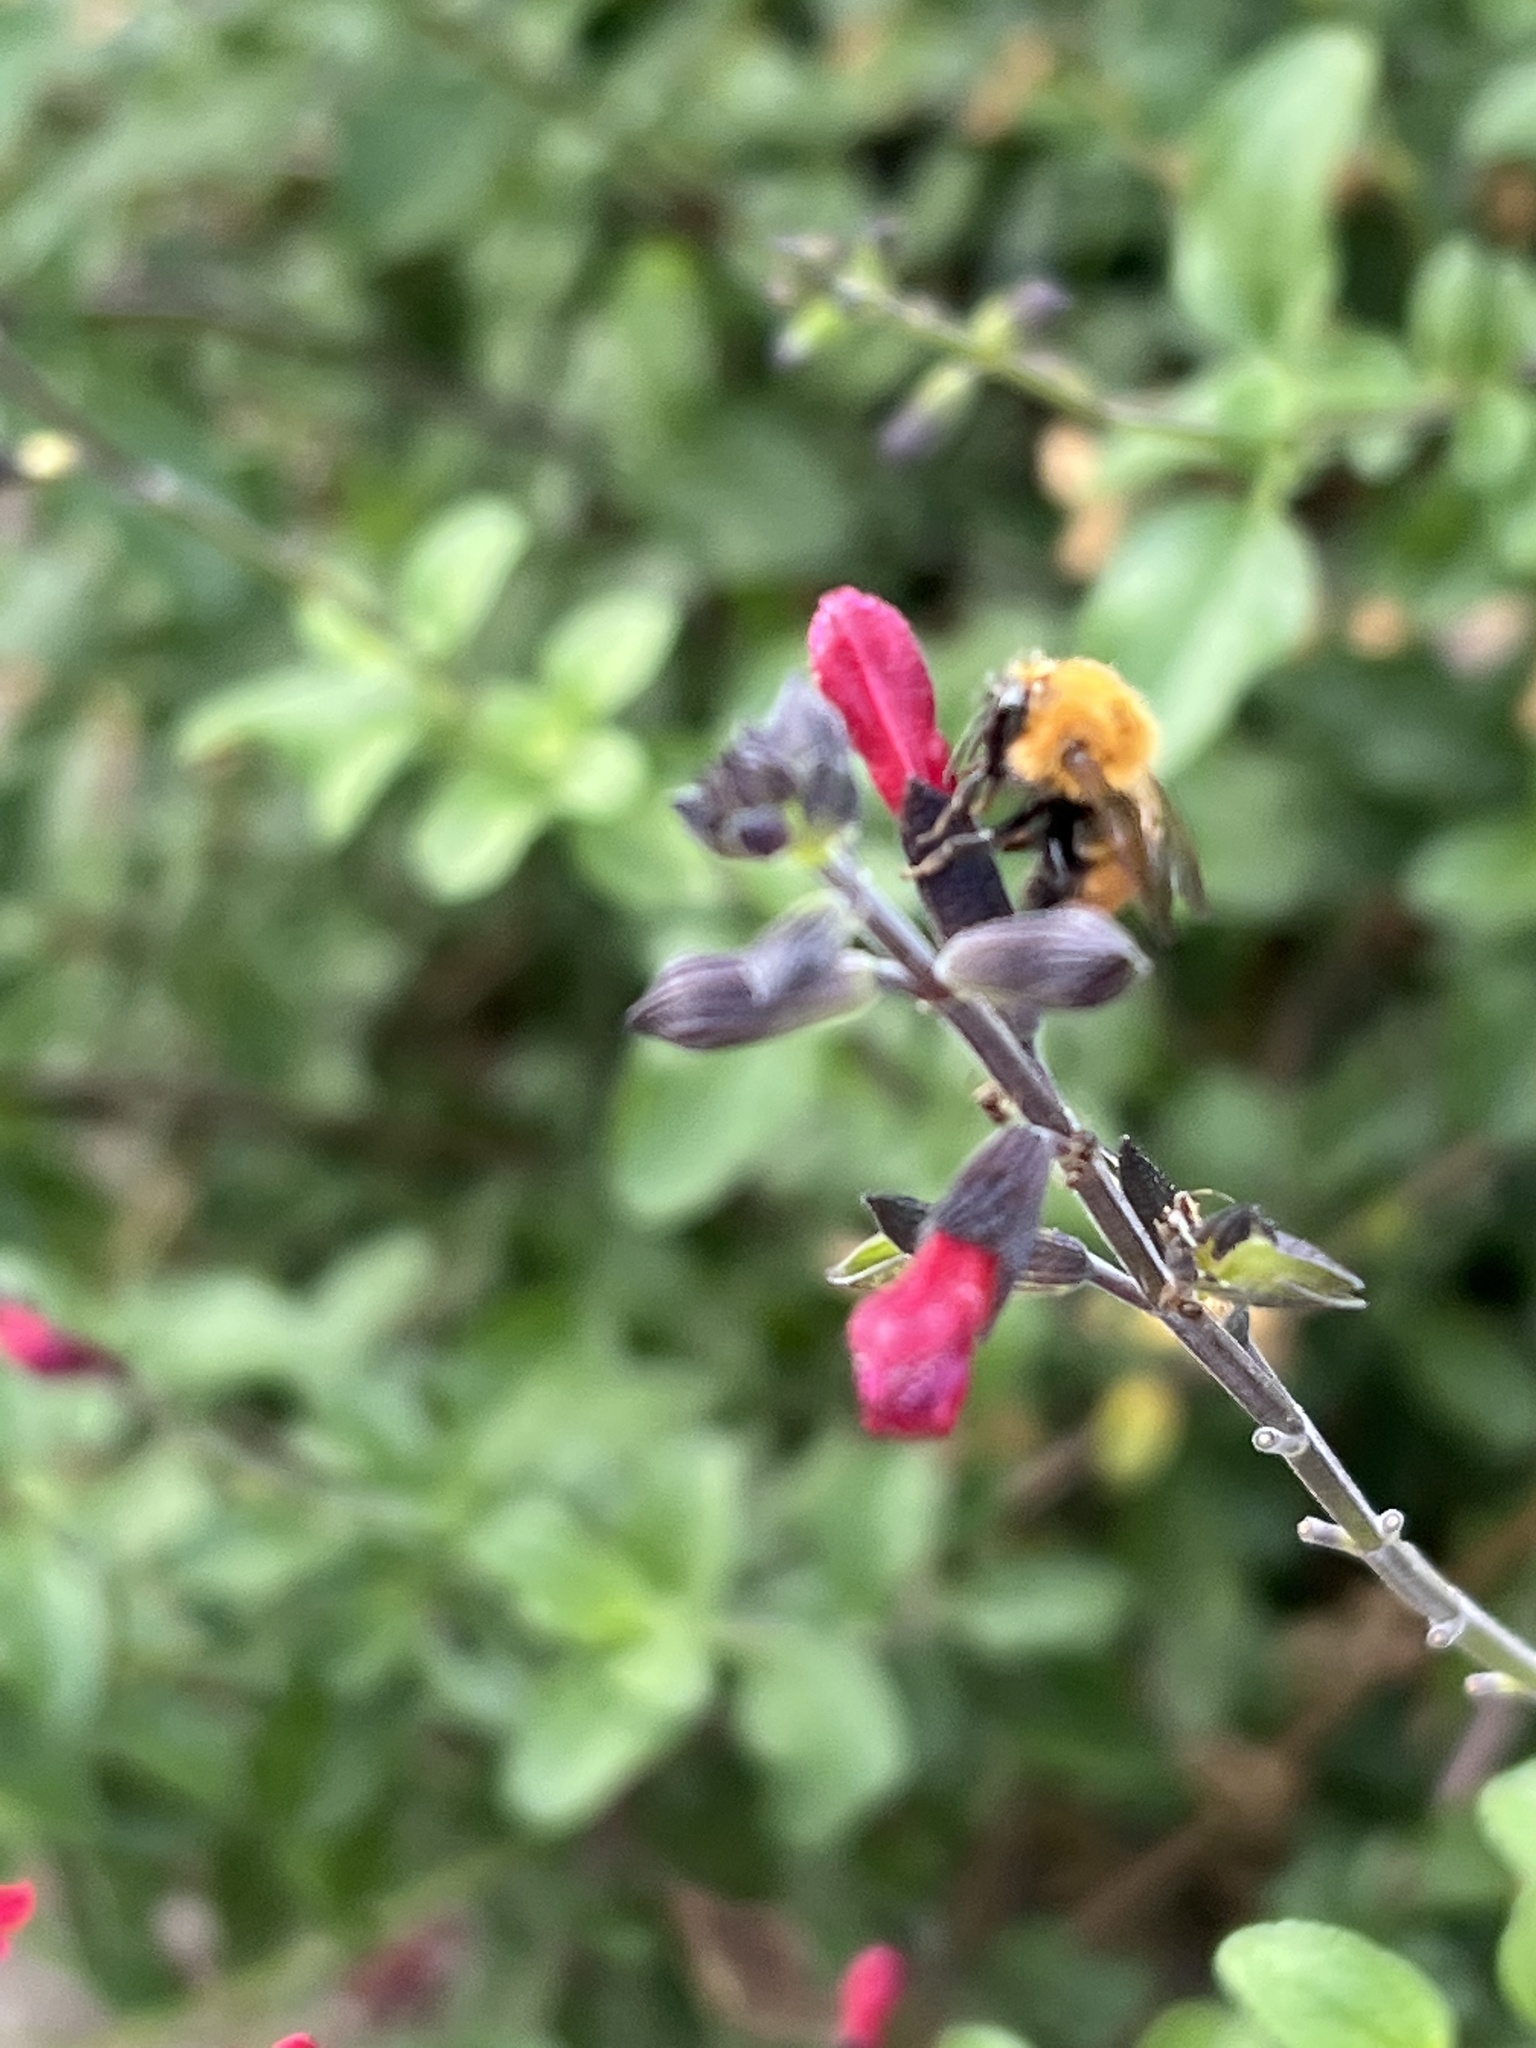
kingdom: Animalia
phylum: Arthropoda
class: Insecta
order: Hymenoptera
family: Apidae
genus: Bombus
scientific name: Bombus pascuorum
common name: Common carder bee
